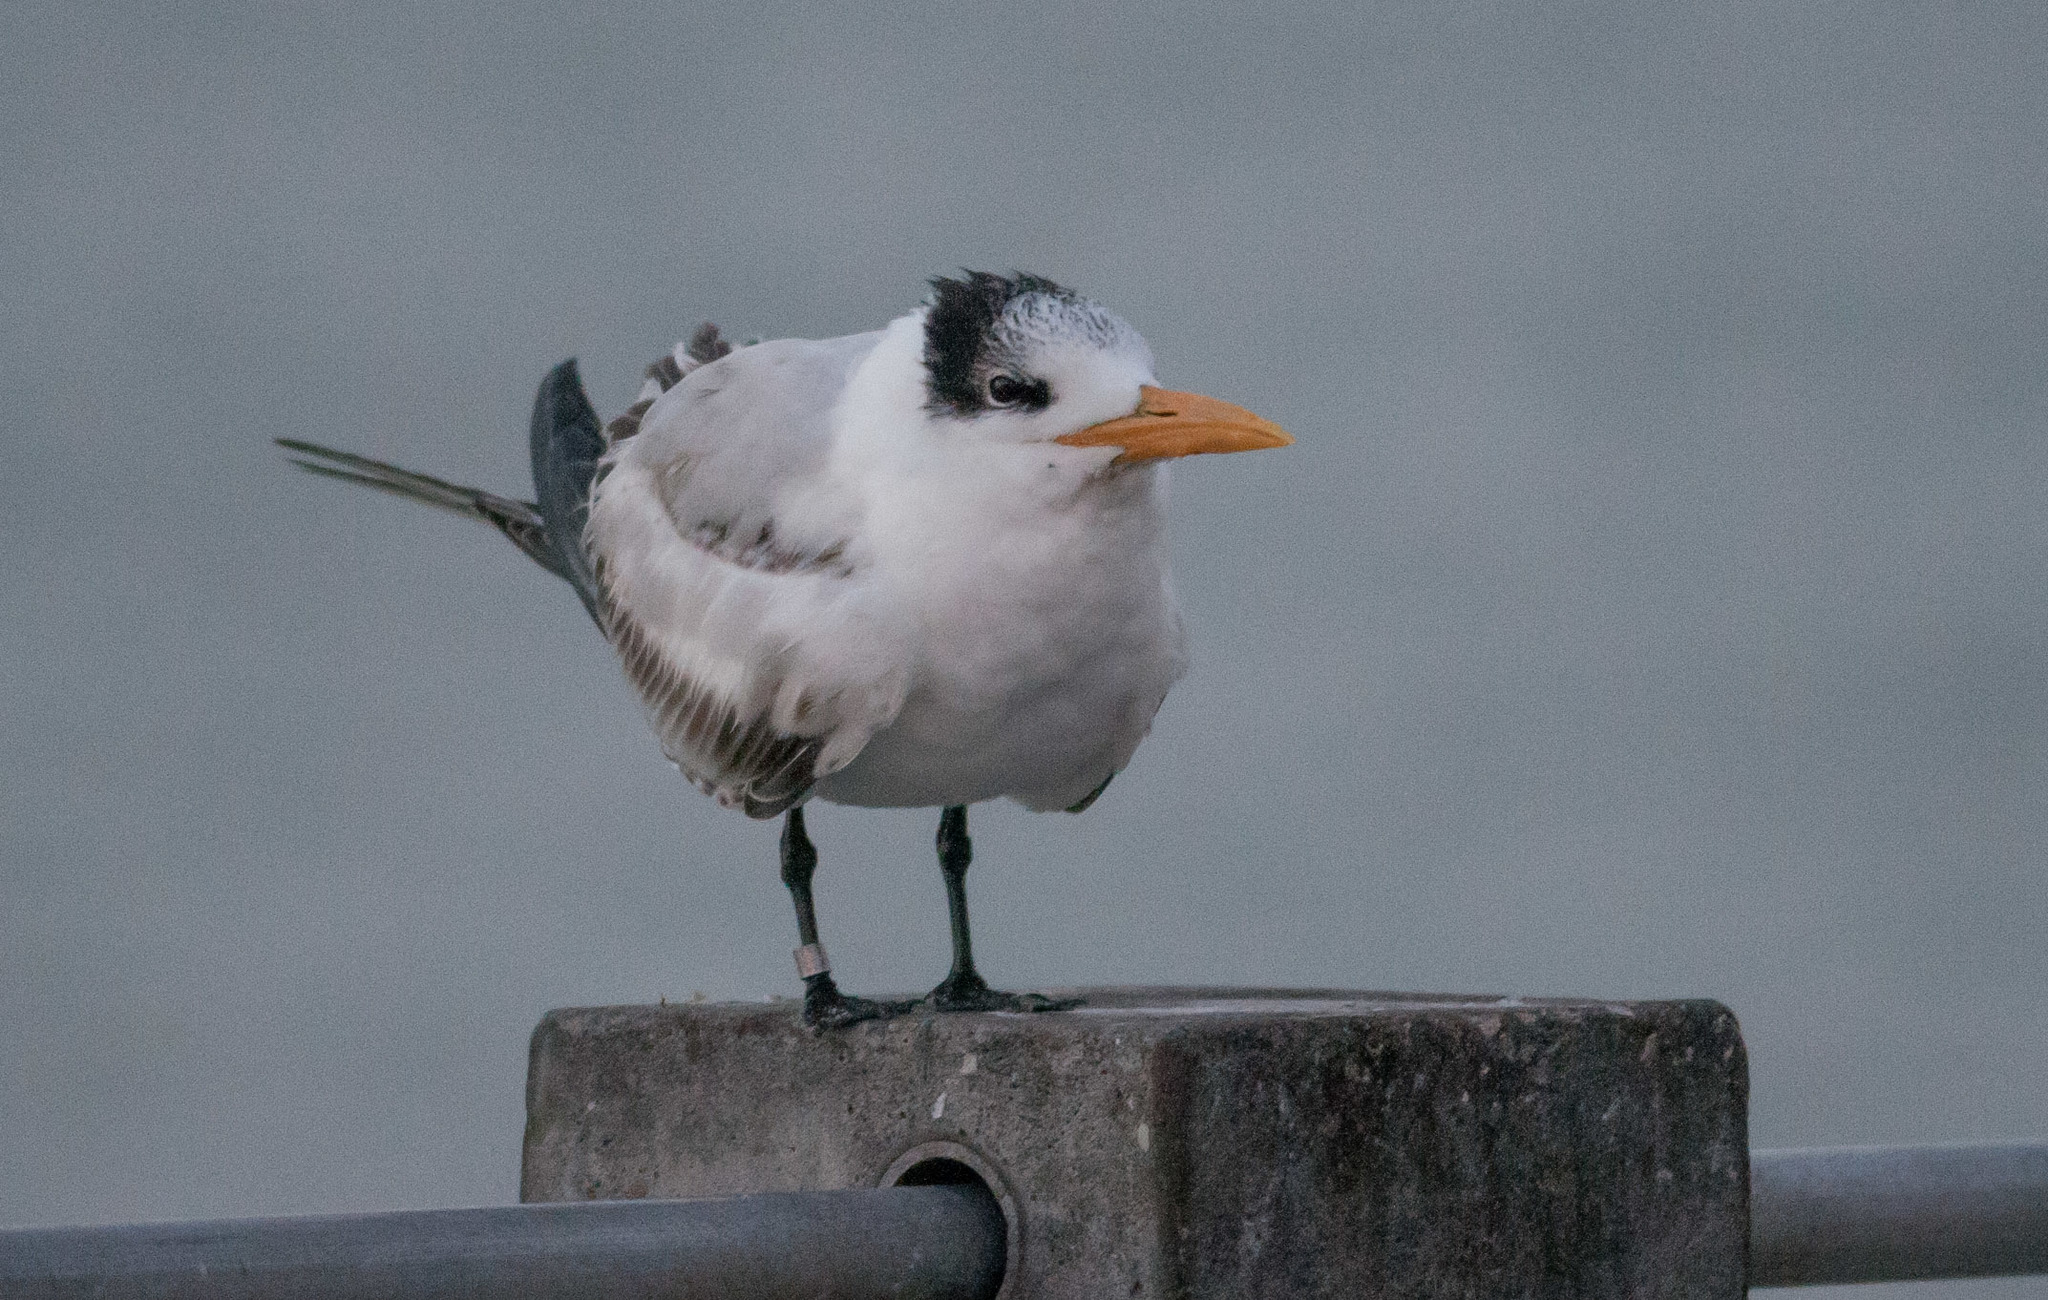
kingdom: Animalia
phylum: Chordata
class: Aves
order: Charadriiformes
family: Laridae
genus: Thalasseus
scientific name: Thalasseus maximus
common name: Royal tern
